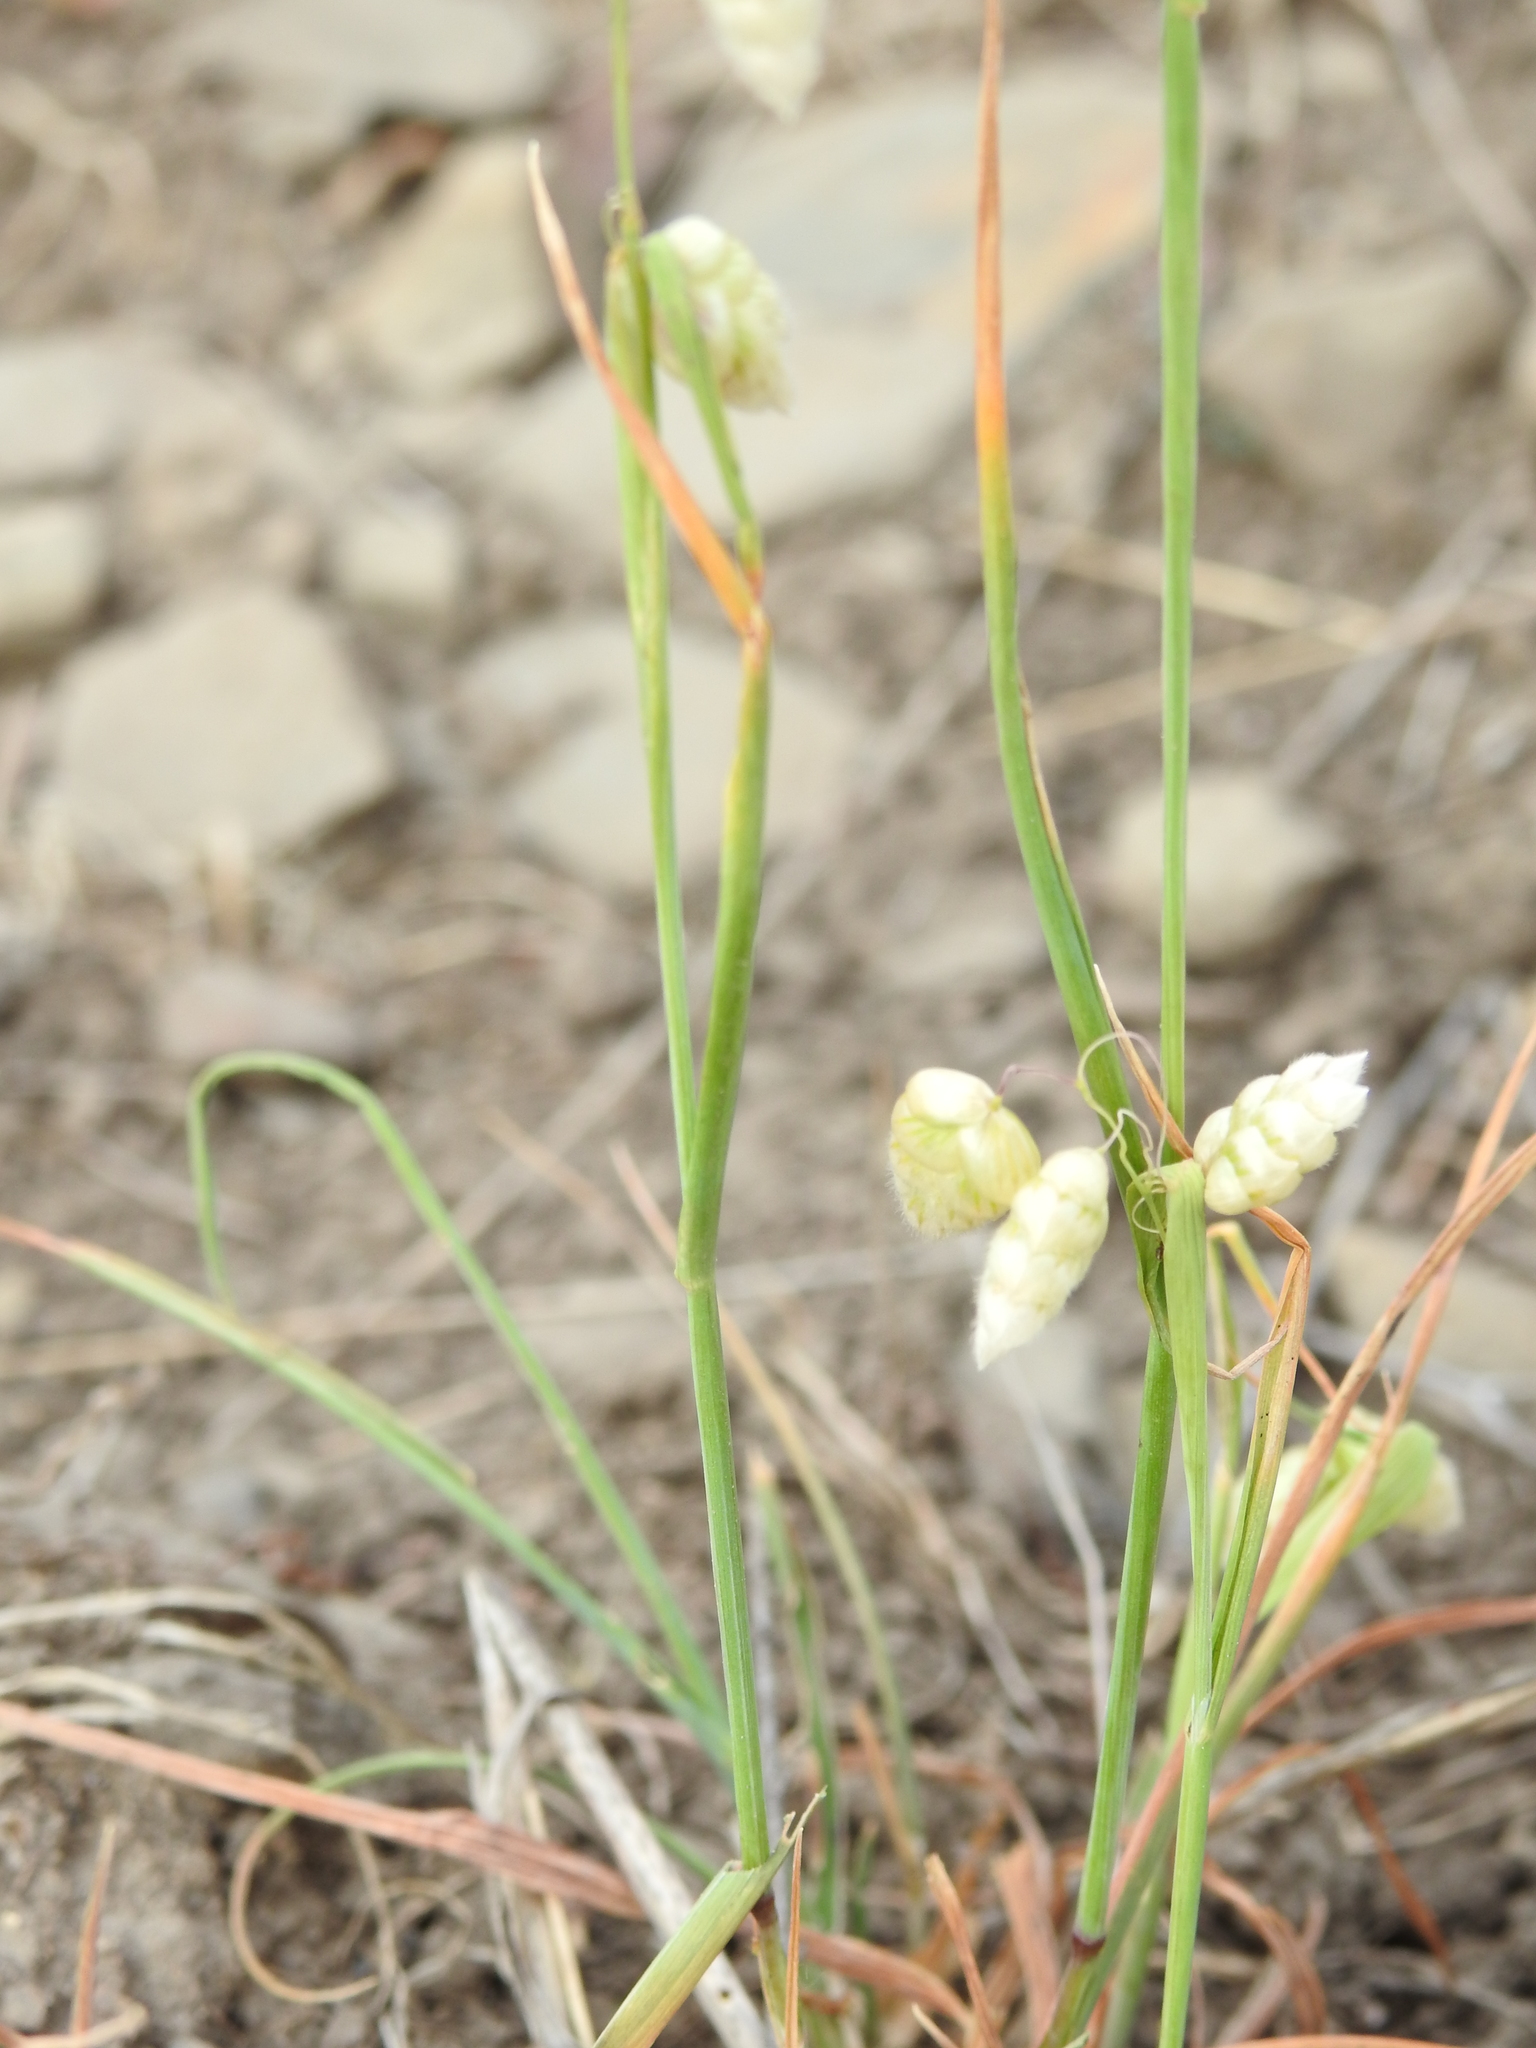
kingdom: Plantae
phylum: Tracheophyta
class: Liliopsida
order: Poales
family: Poaceae
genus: Briza
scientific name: Briza maxima
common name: Big quakinggrass
